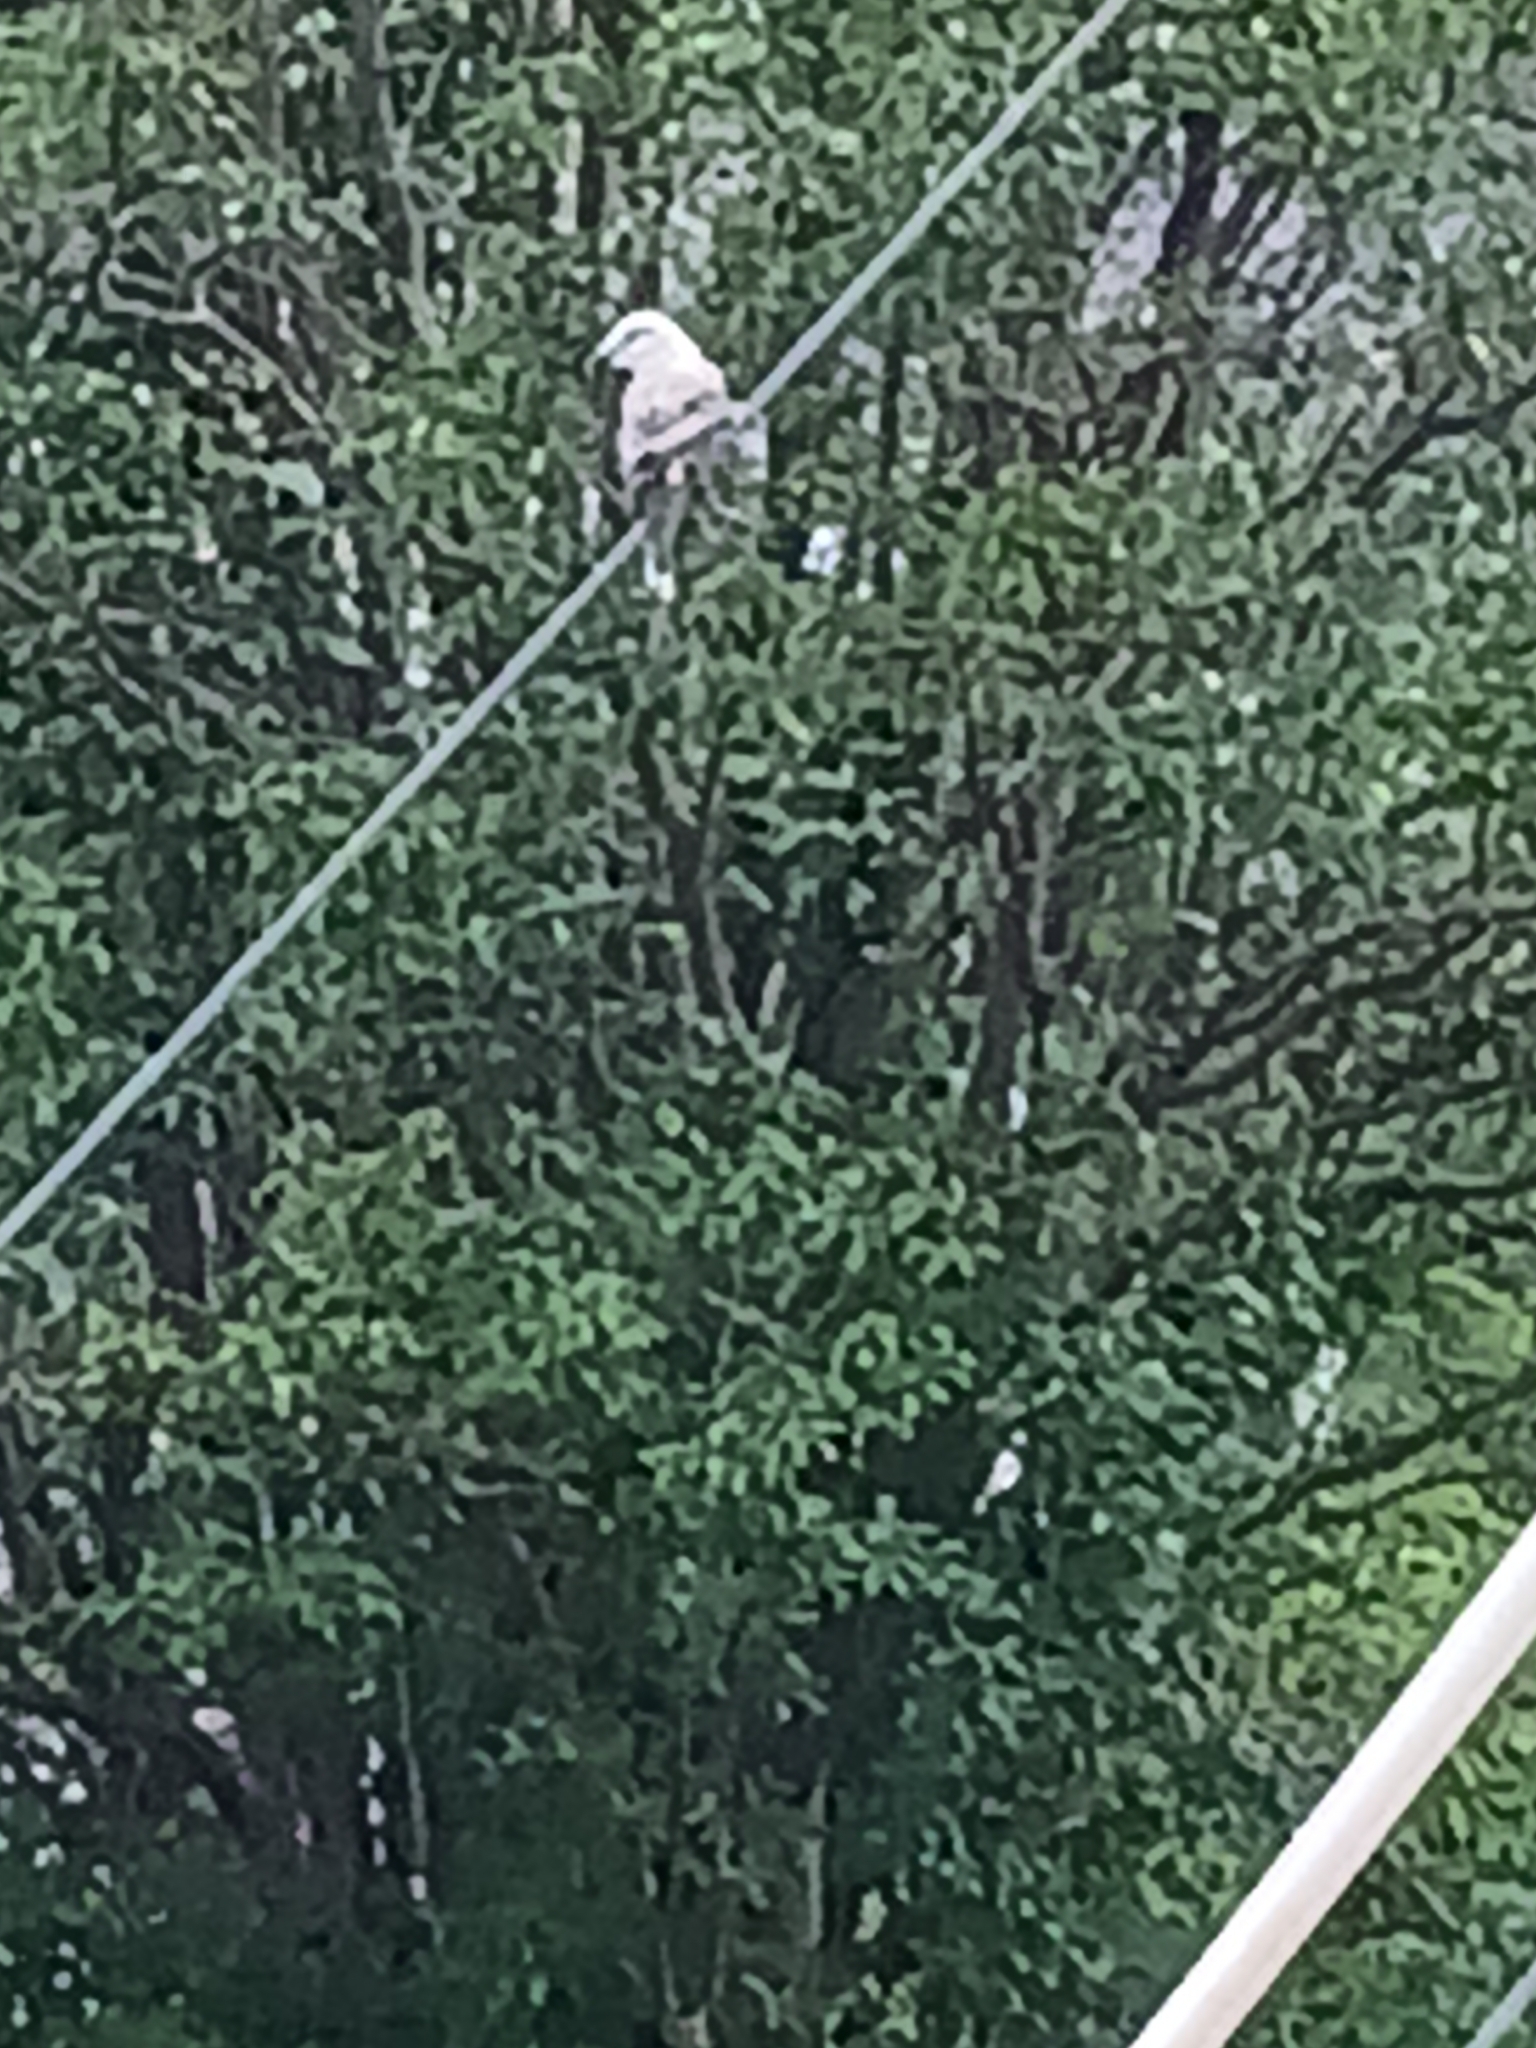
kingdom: Animalia
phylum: Chordata
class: Aves
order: Passeriformes
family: Tyrannidae
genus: Tyrannus
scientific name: Tyrannus forficatus
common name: Scissor-tailed flycatcher
